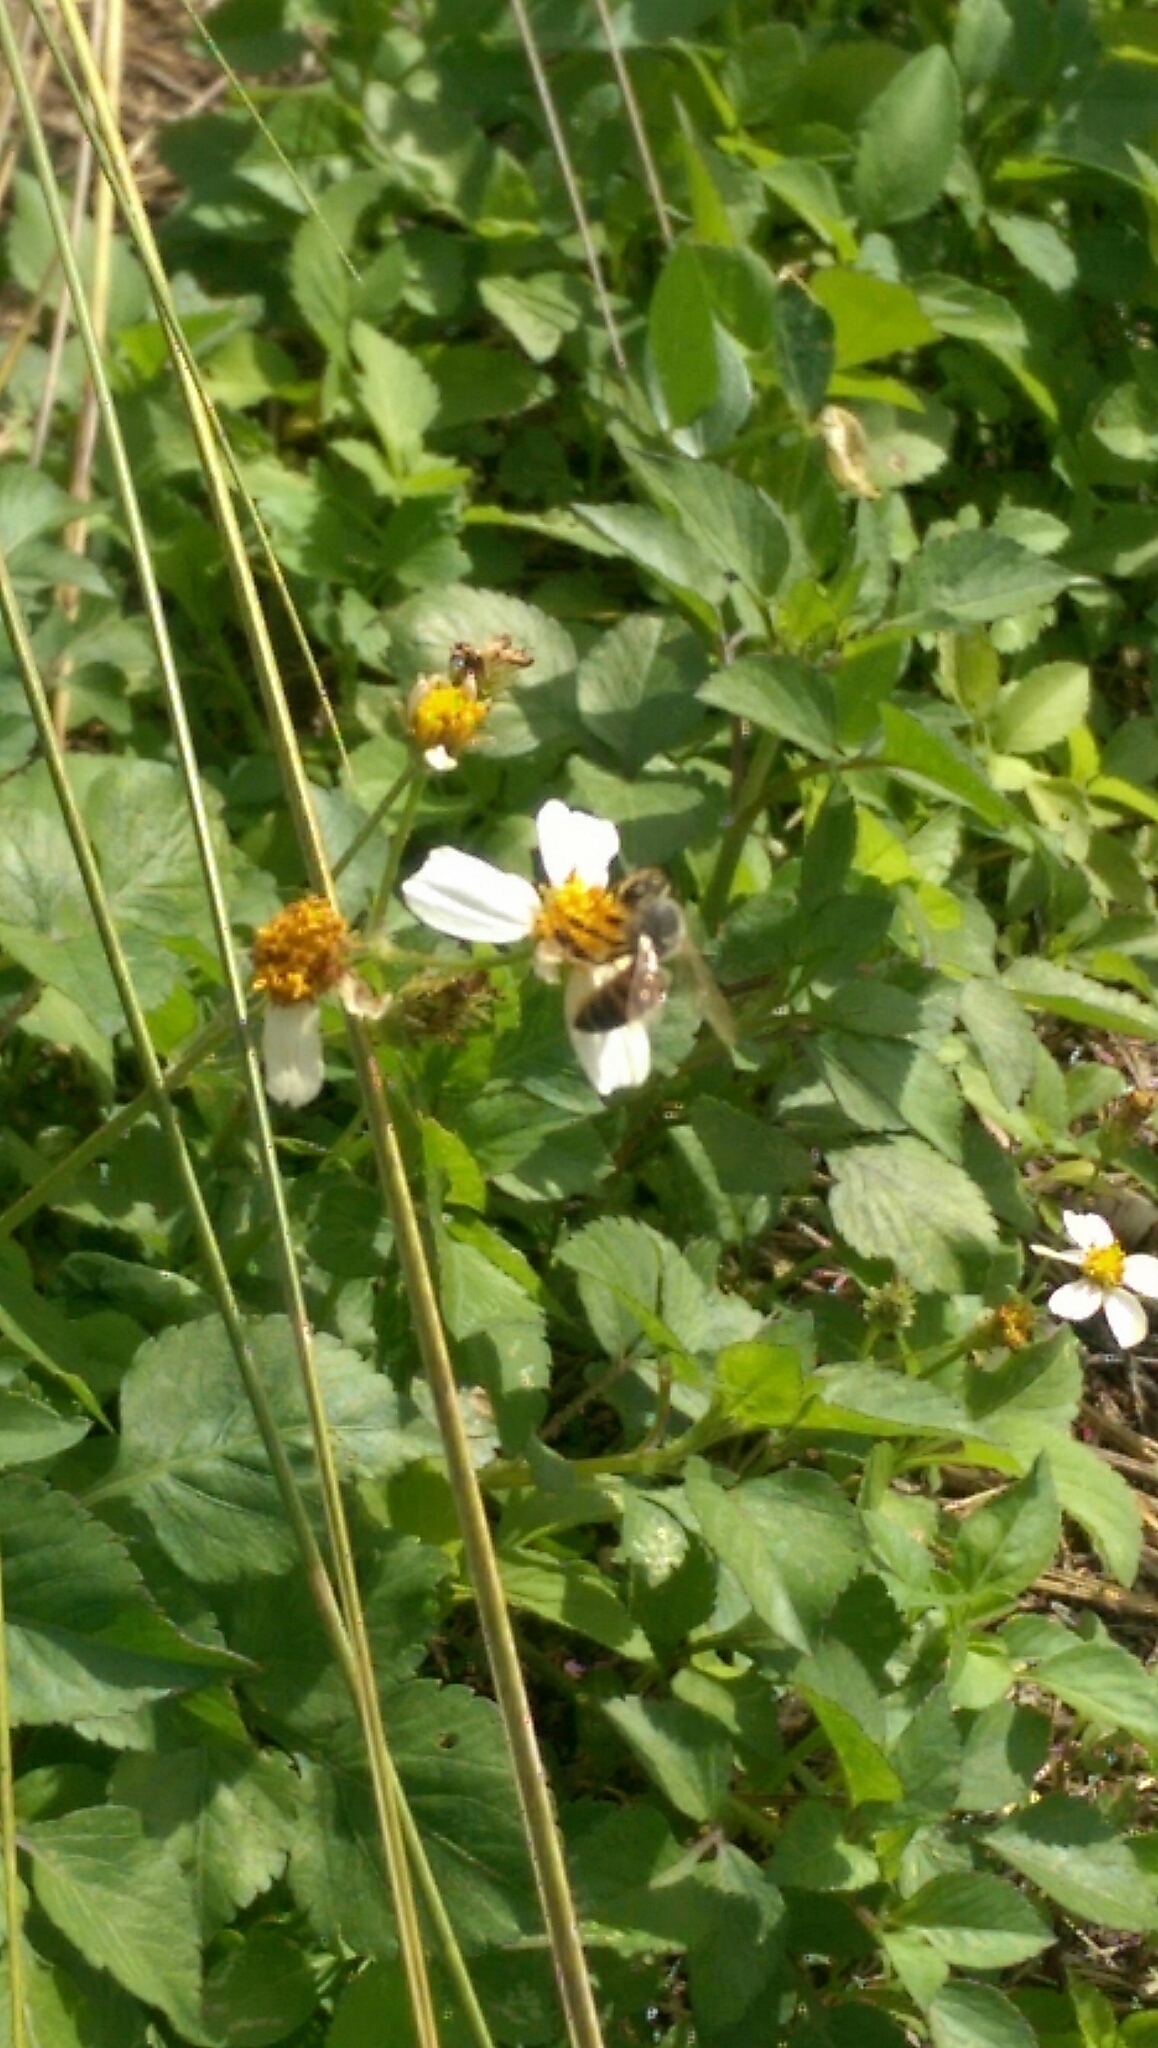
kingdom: Animalia
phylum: Arthropoda
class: Insecta
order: Hymenoptera
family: Apidae
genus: Apis
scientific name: Apis mellifera
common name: Honey bee
